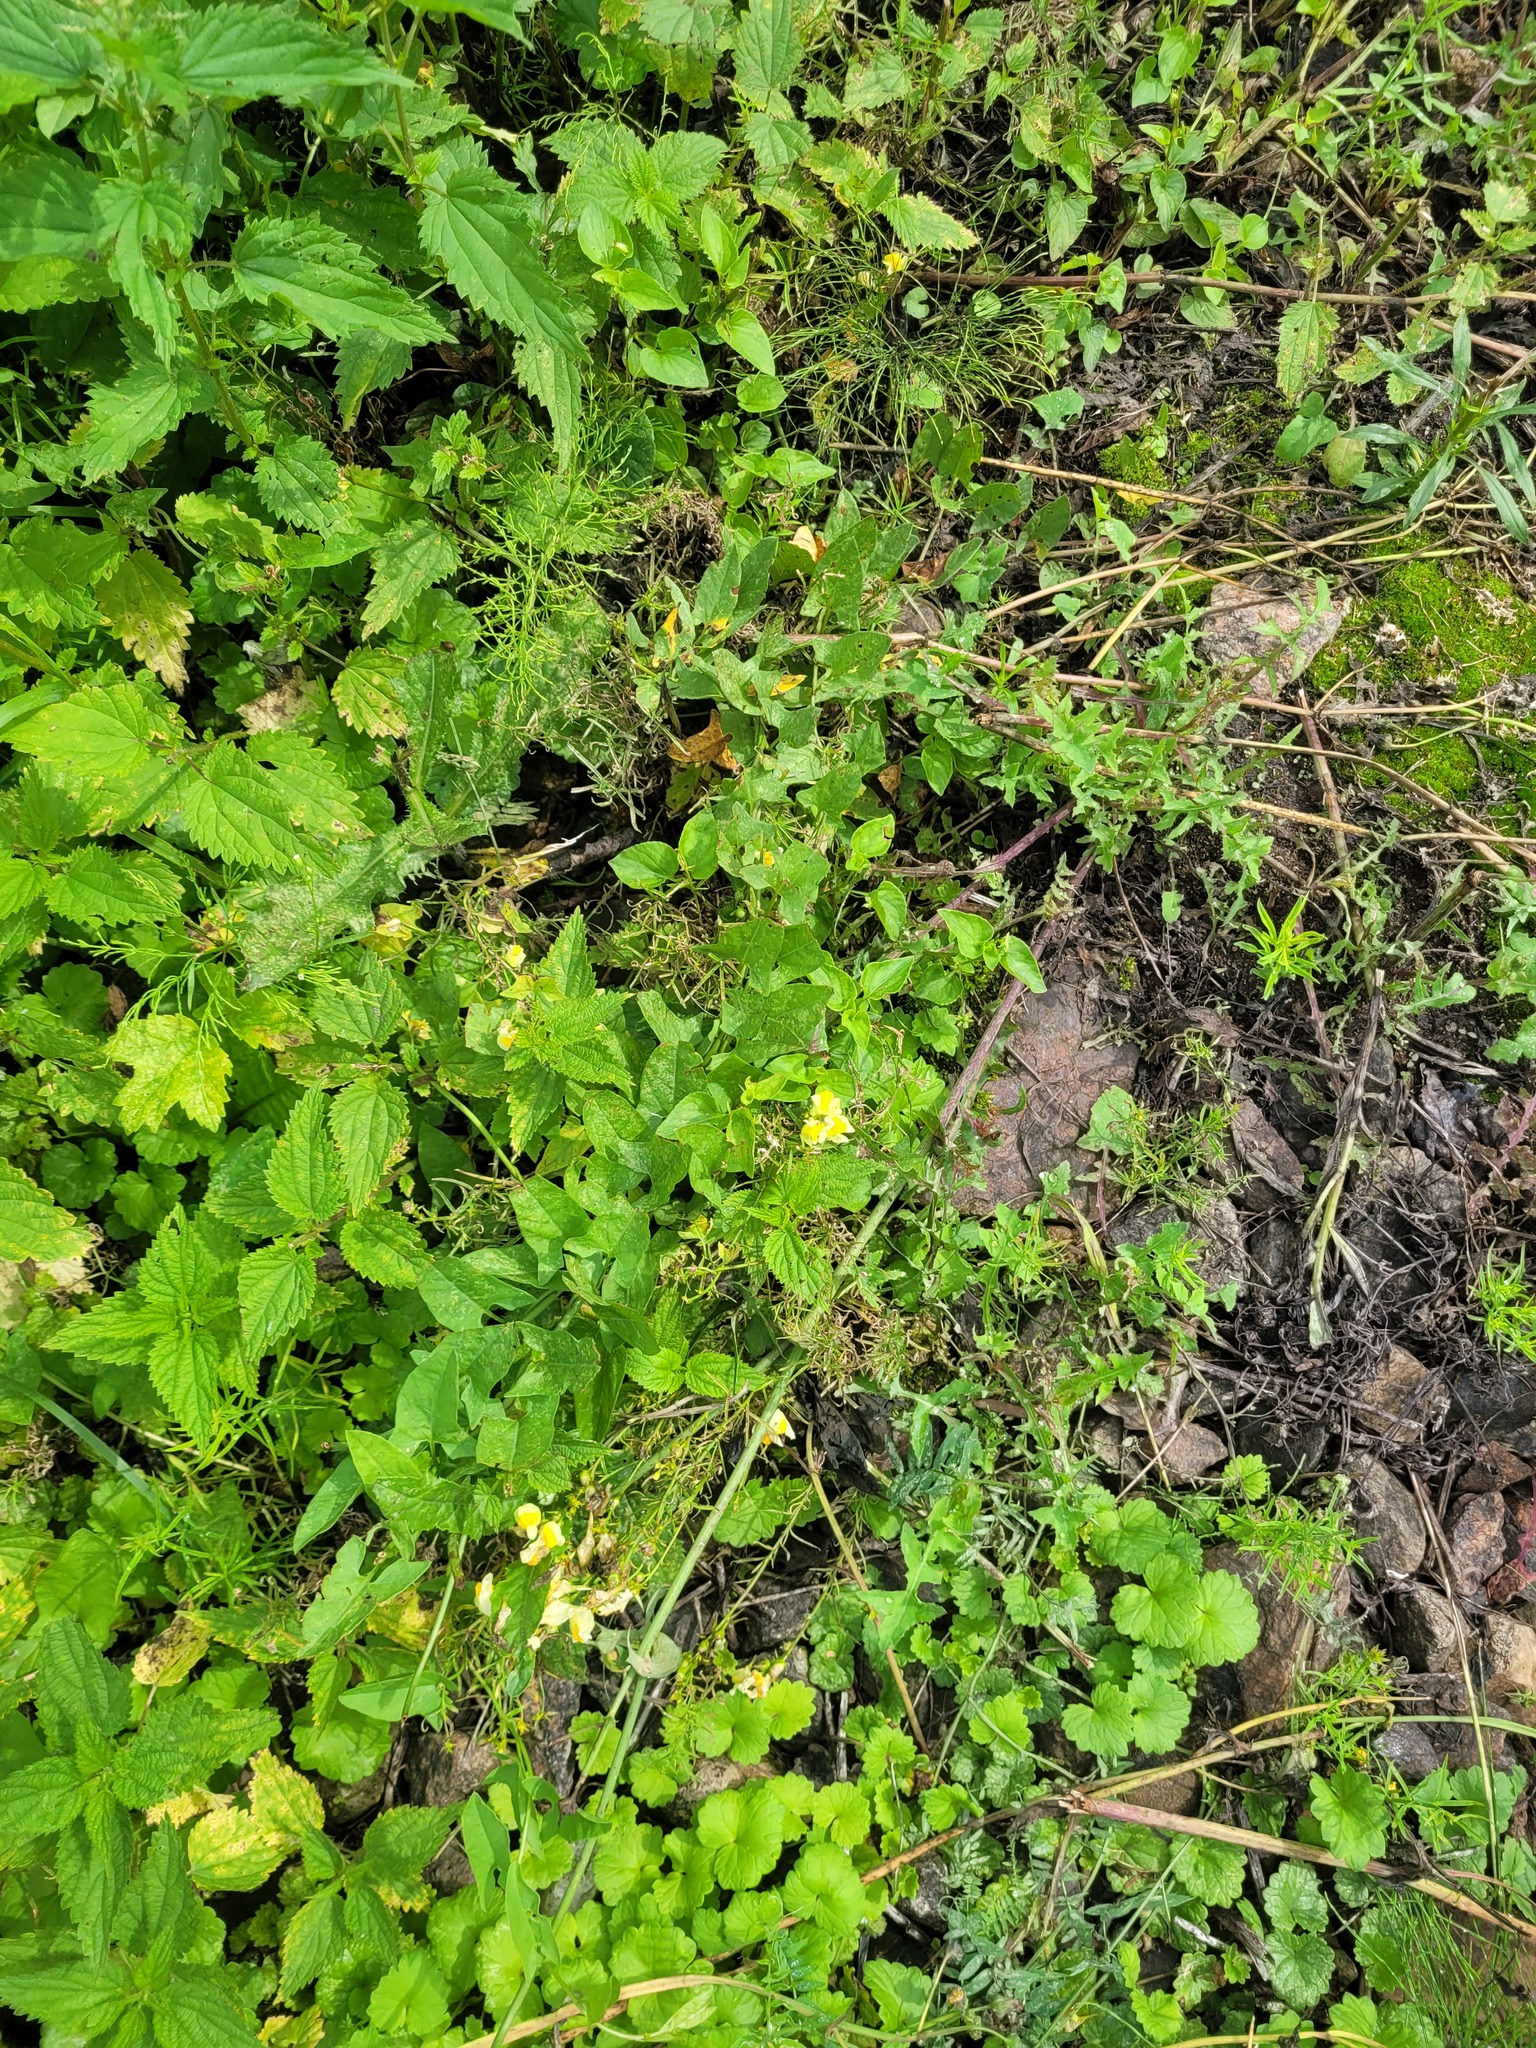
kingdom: Plantae
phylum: Tracheophyta
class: Magnoliopsida
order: Lamiales
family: Plantaginaceae
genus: Linaria
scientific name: Linaria vulgaris
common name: Butter and eggs
